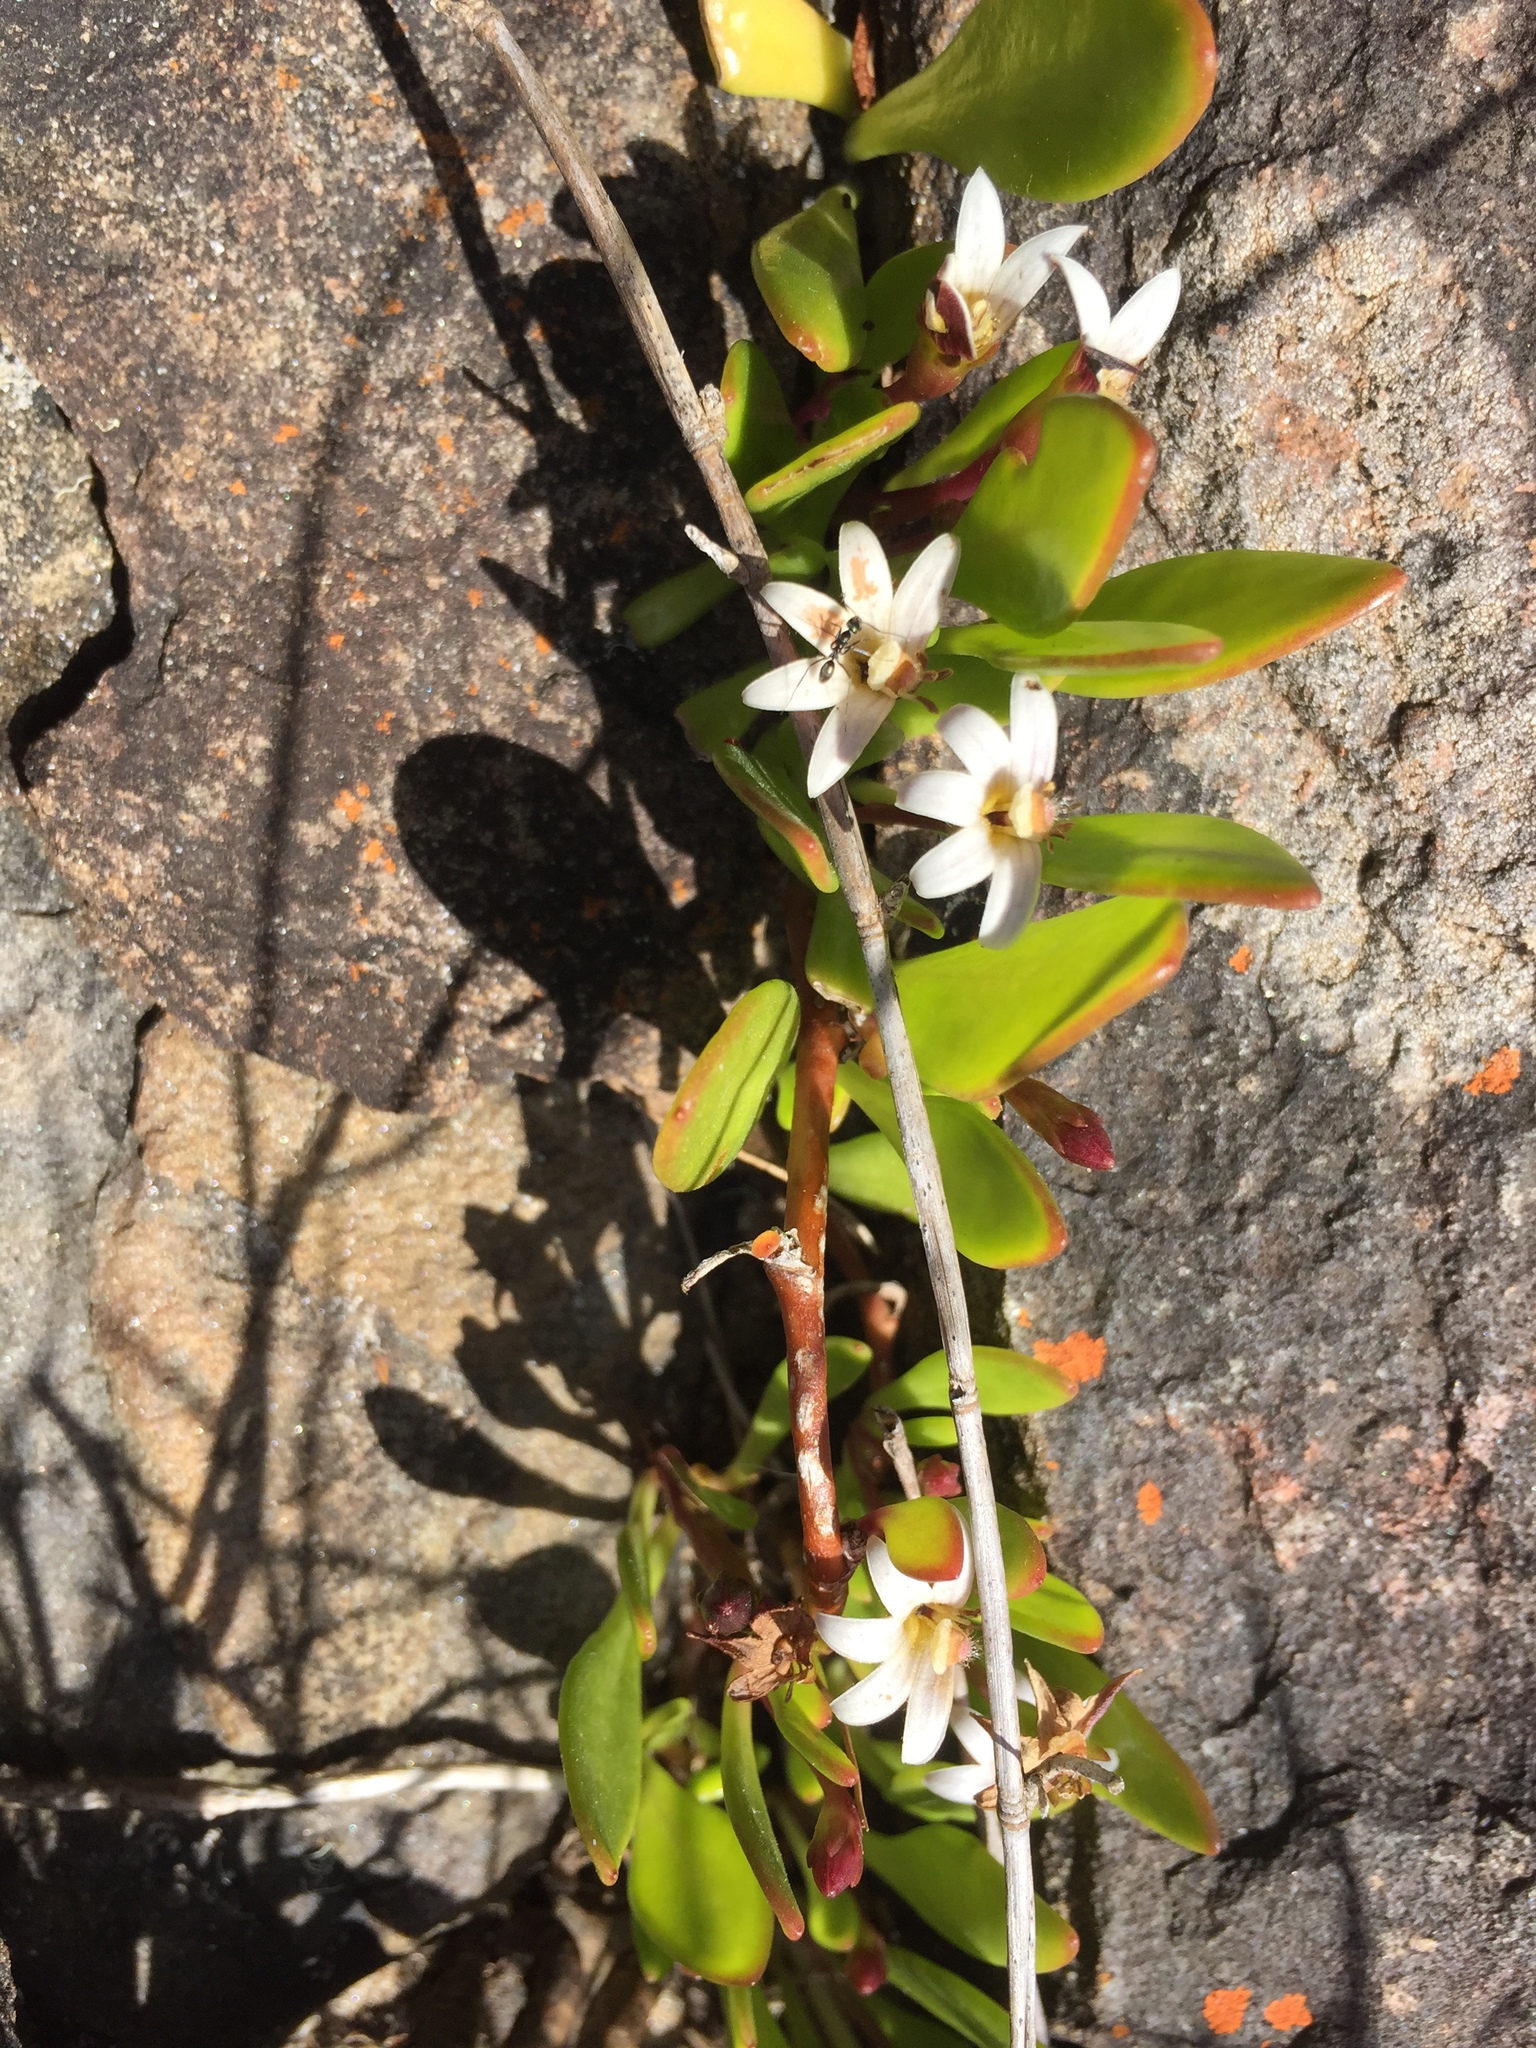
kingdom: Plantae
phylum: Tracheophyta
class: Magnoliopsida
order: Asterales
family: Goodeniaceae
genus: Goodenia
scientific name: Goodenia radicans
